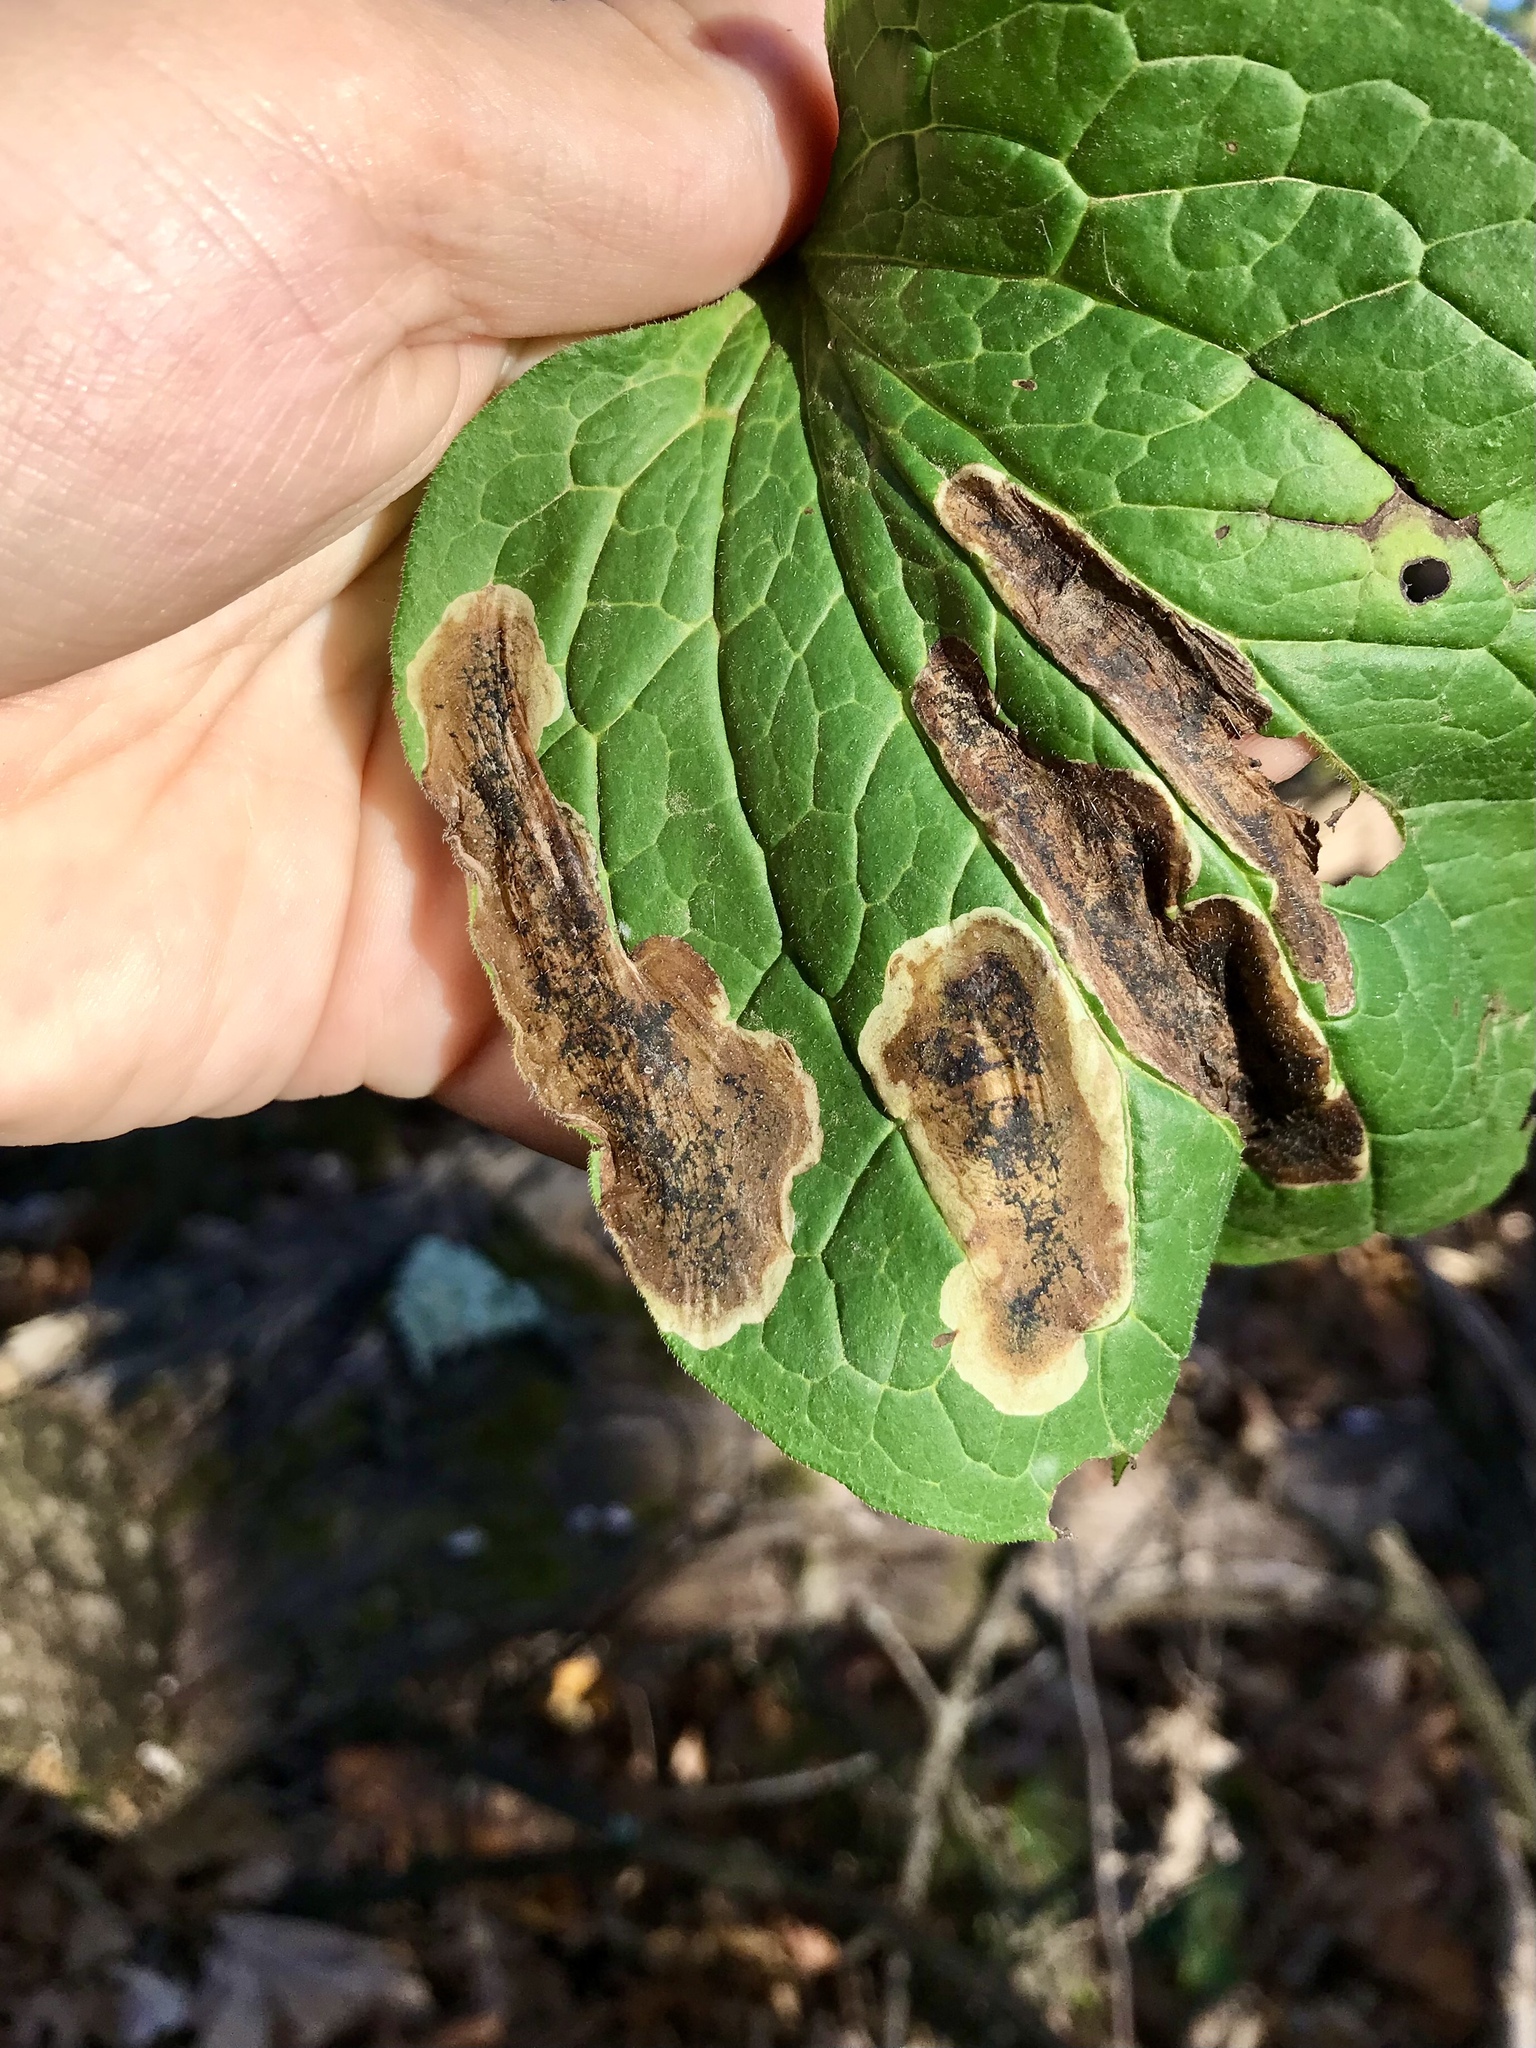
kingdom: Animalia
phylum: Arthropoda
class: Insecta
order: Diptera
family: Agromyzidae
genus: Agromyza
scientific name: Agromyza canadensis
